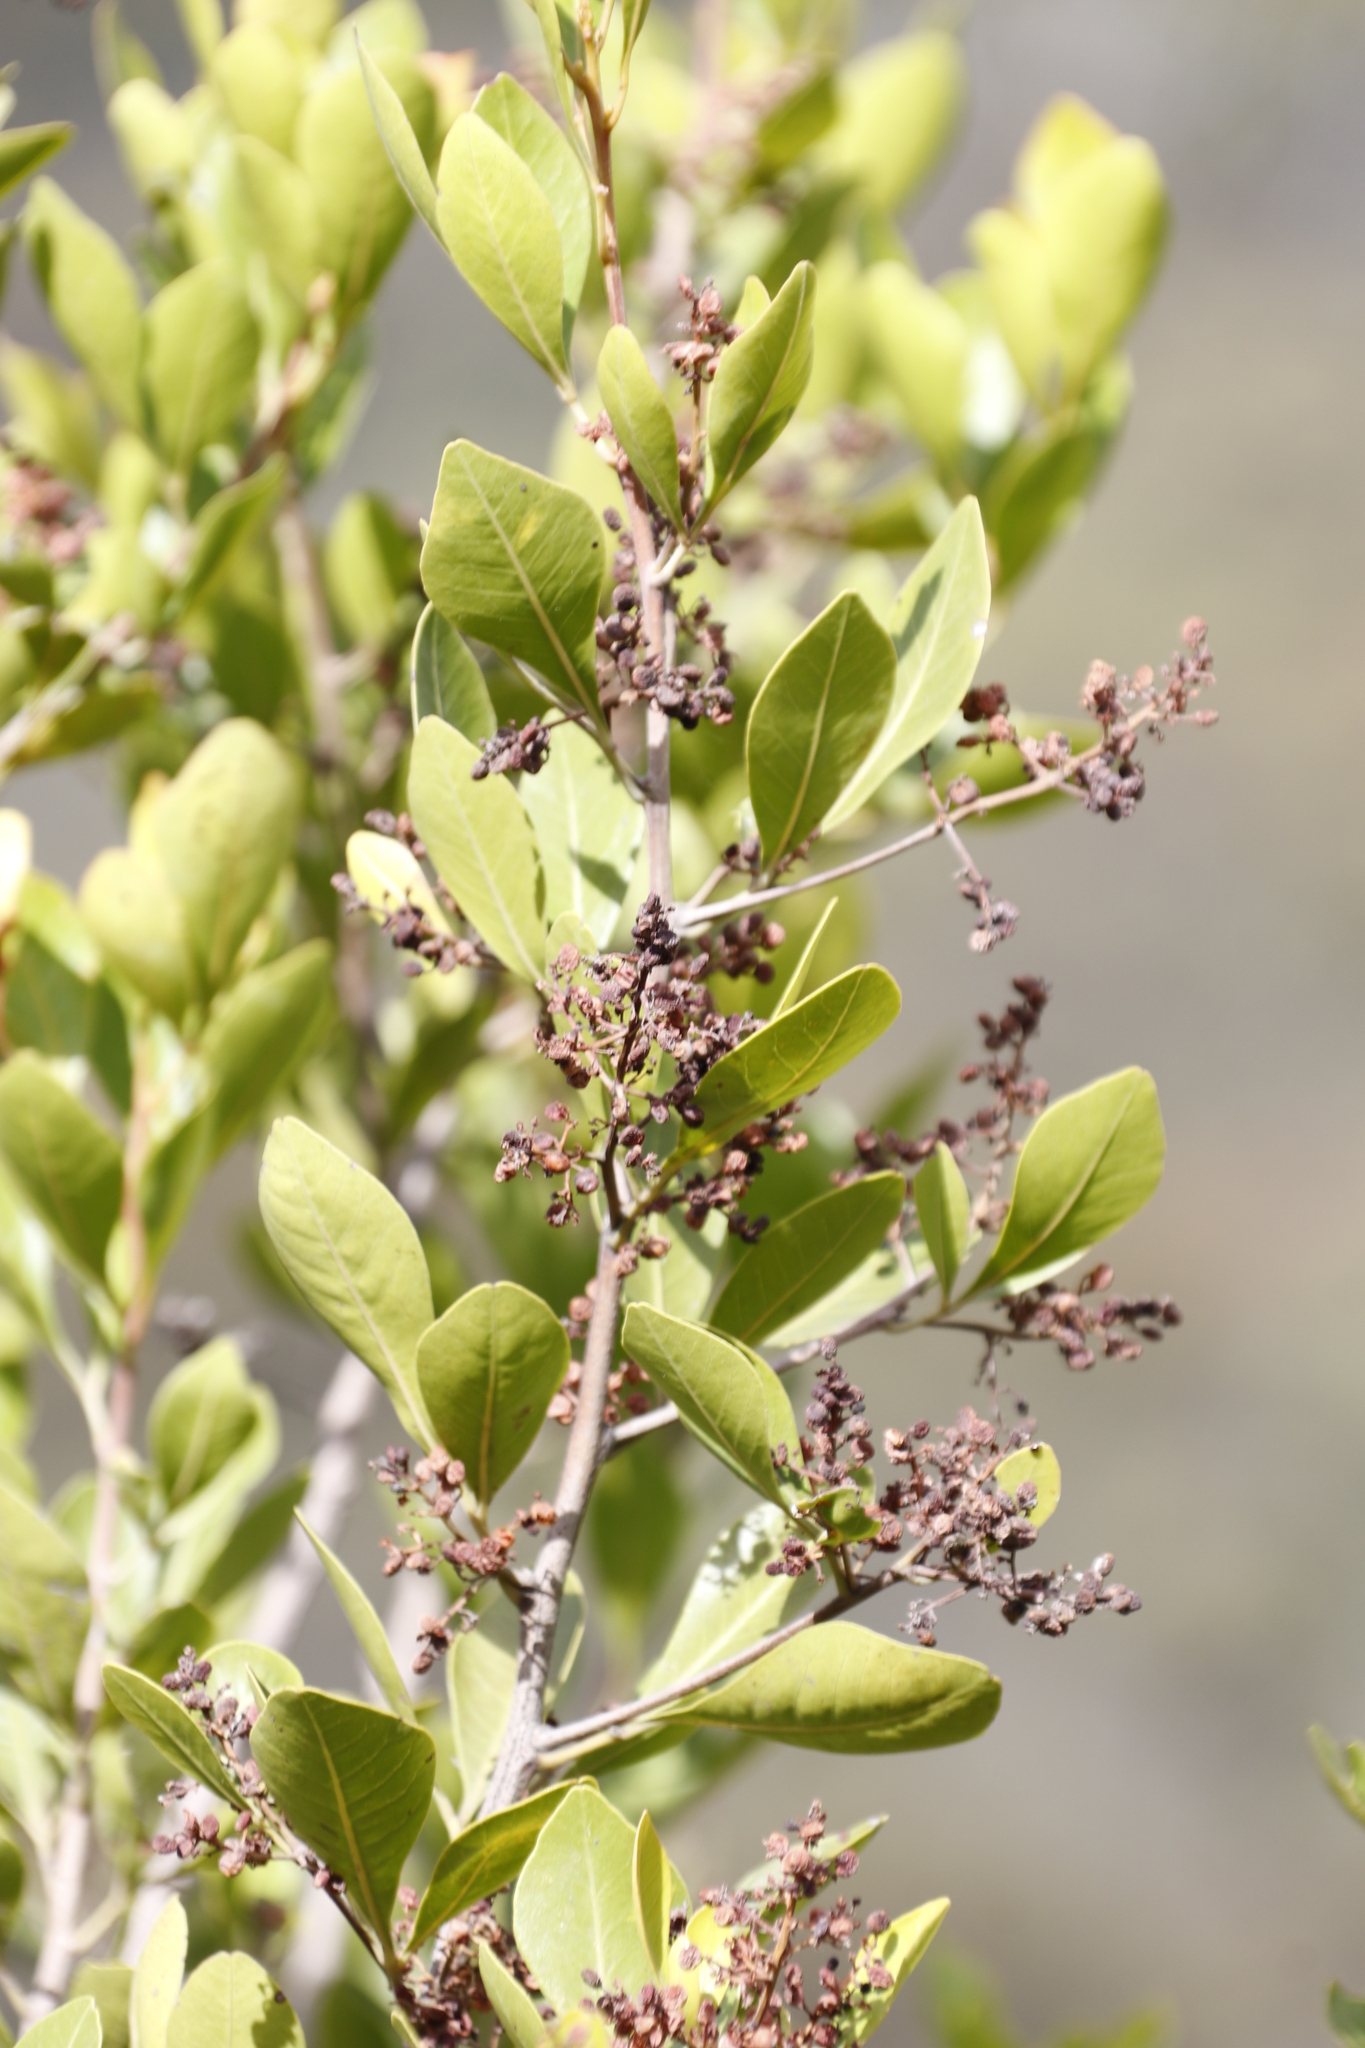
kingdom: Plantae
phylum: Tracheophyta
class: Magnoliopsida
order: Sapindales
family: Anacardiaceae
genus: Searsia
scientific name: Searsia lucida
